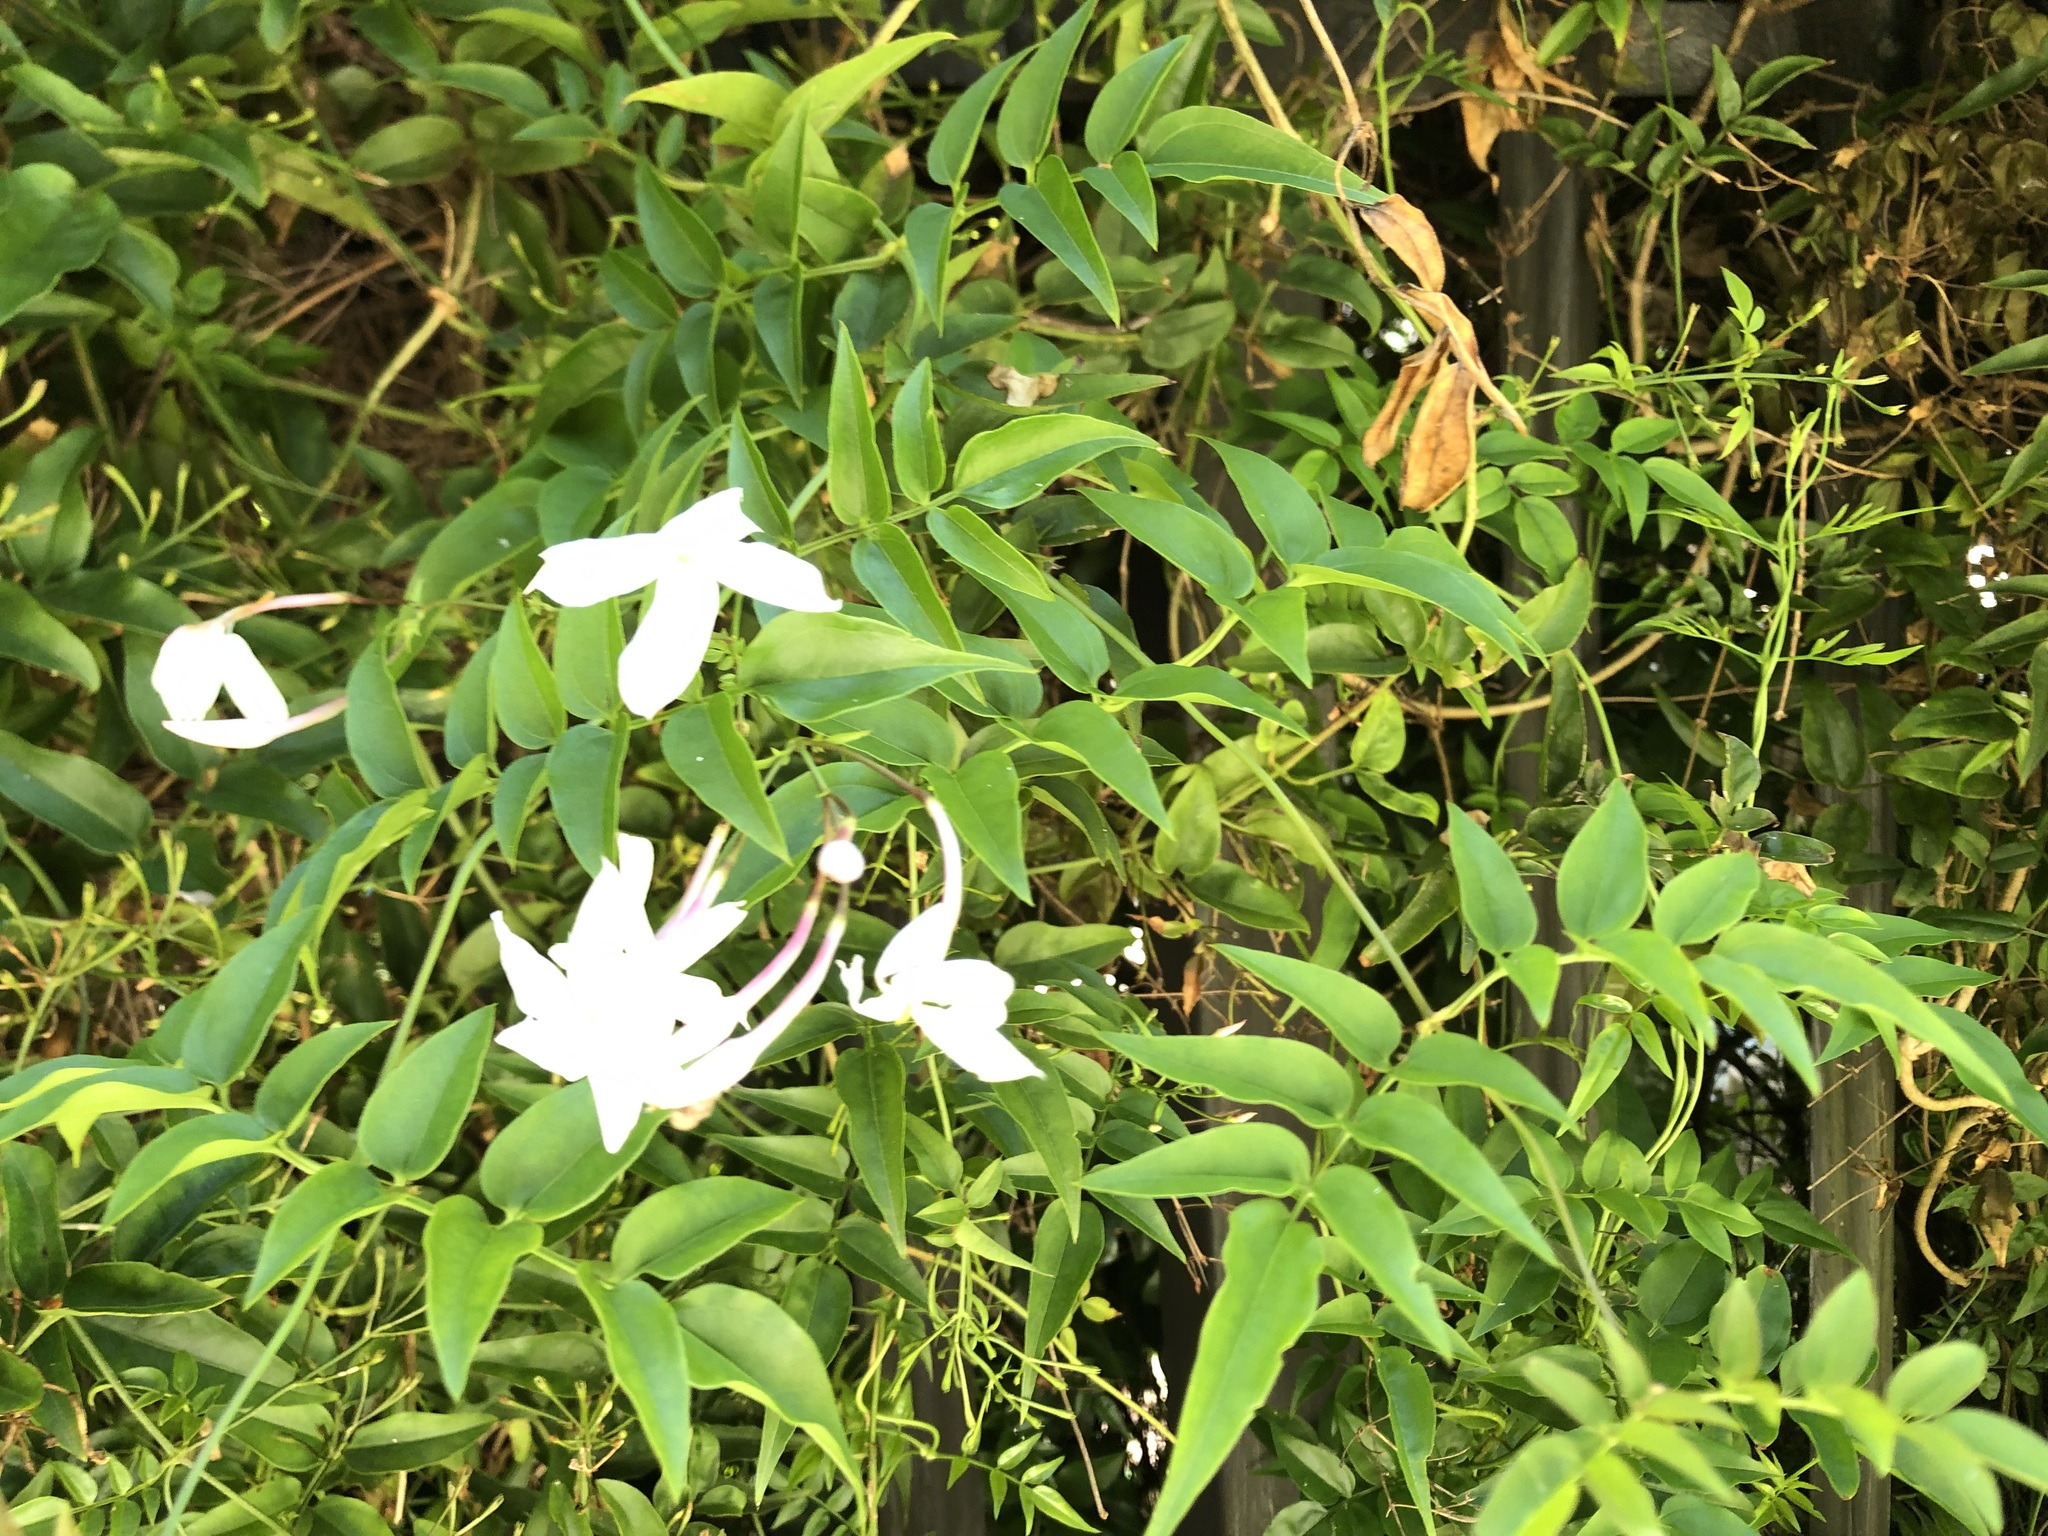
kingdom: Plantae
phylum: Tracheophyta
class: Magnoliopsida
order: Lamiales
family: Oleaceae
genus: Jasminum
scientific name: Jasminum polyanthum
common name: Pink jasmine
